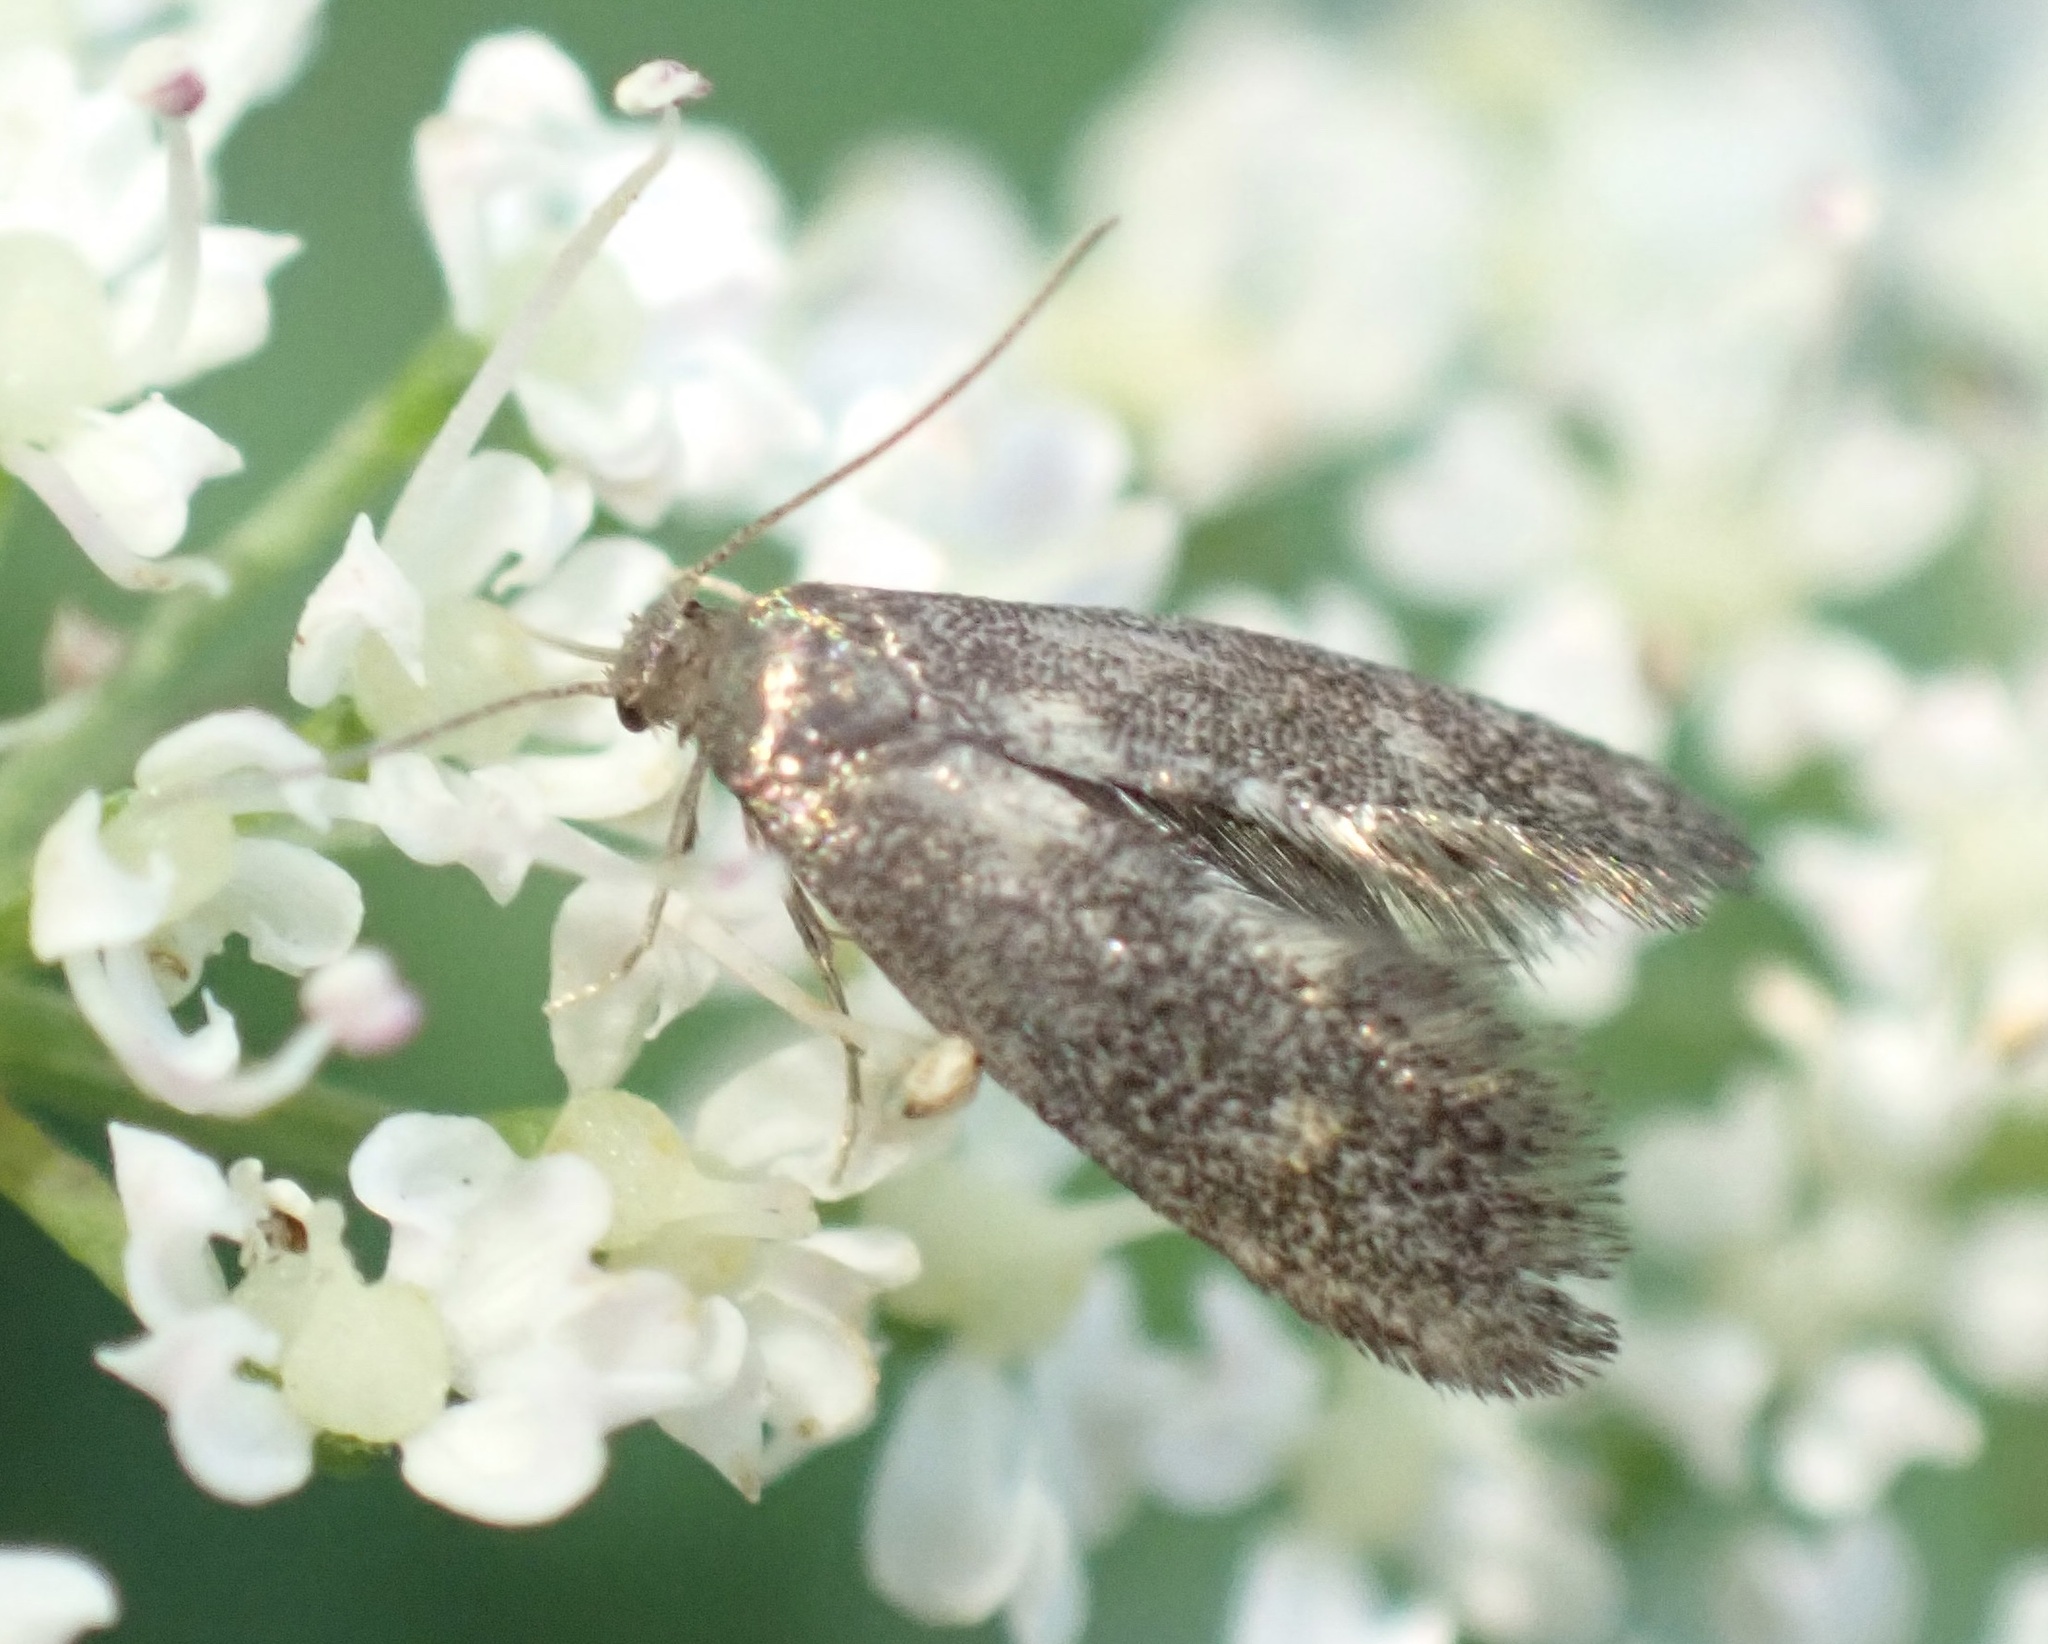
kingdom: Animalia
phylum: Arthropoda
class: Insecta
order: Lepidoptera
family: Epermeniidae
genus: Phaulernis
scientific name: Phaulernis dentella
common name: Scale-tooth lance-wing
